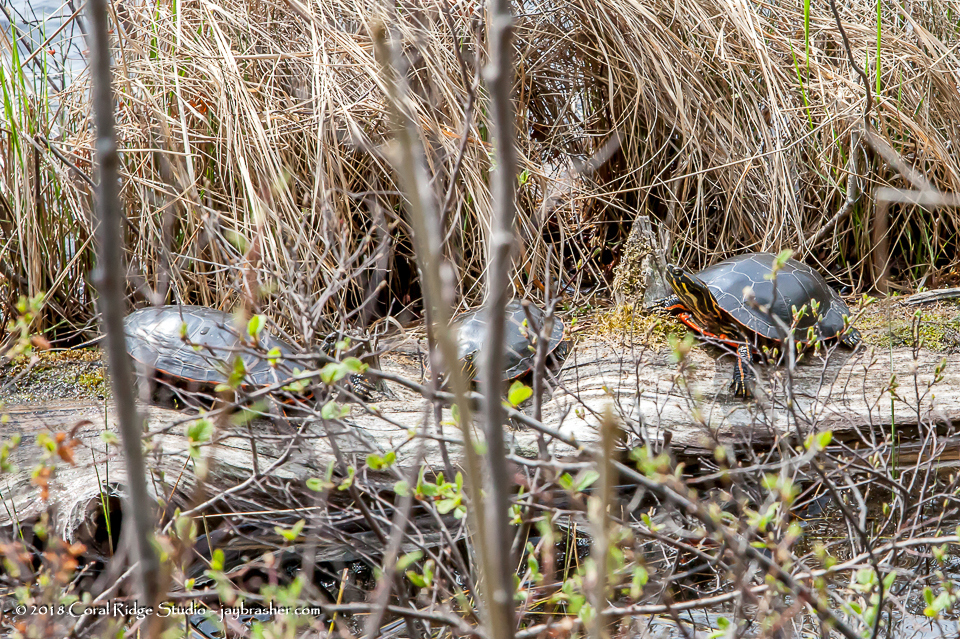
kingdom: Animalia
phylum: Chordata
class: Testudines
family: Emydidae
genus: Chrysemys
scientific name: Chrysemys picta
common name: Painted turtle
